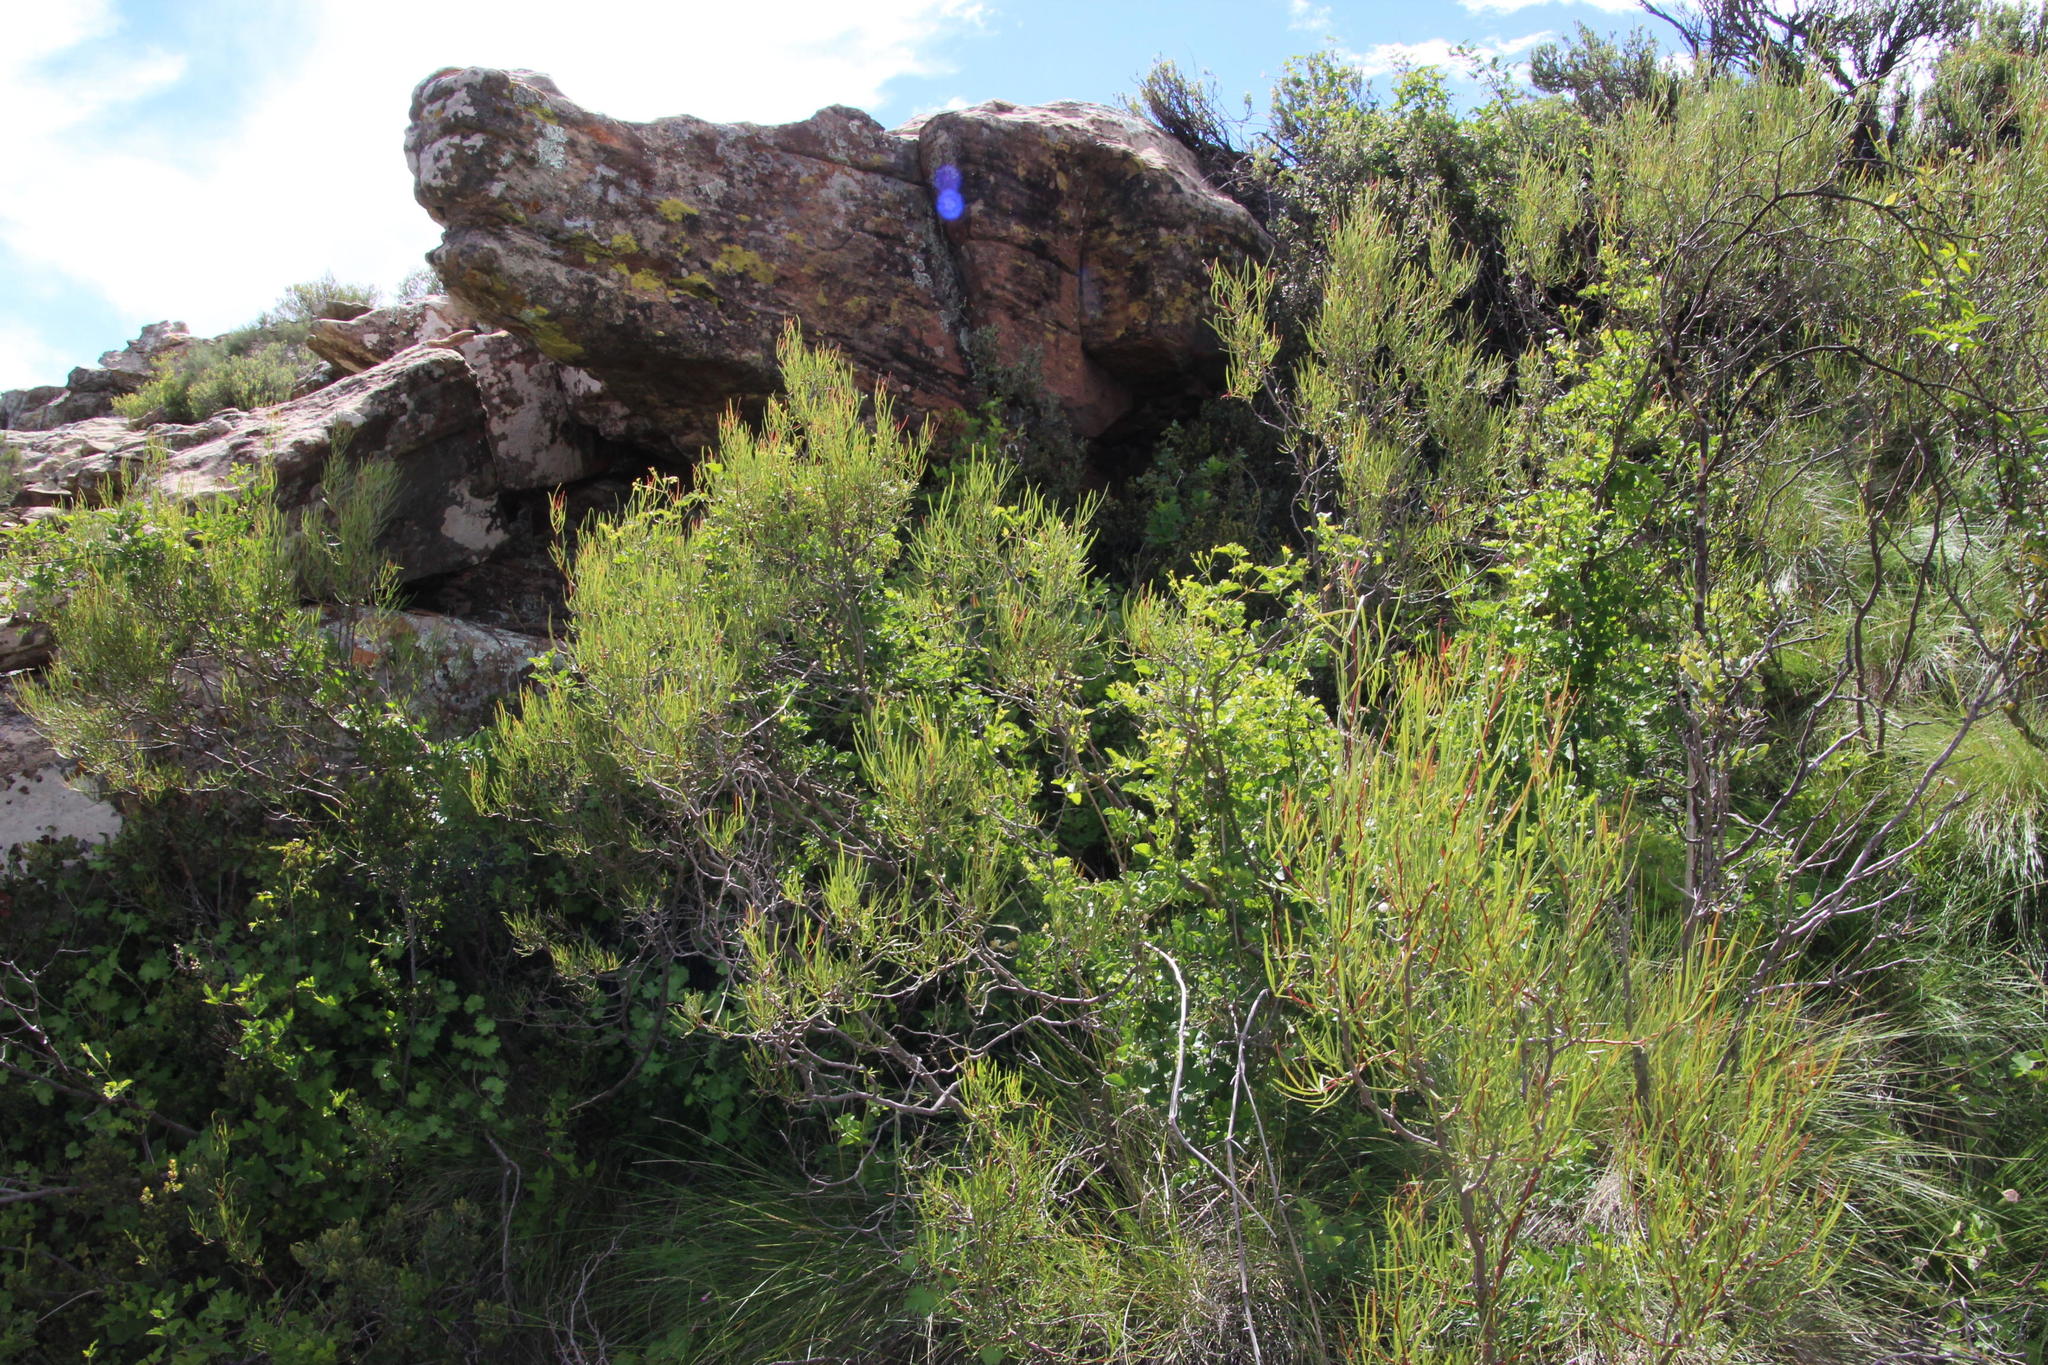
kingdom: Plantae
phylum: Tracheophyta
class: Magnoliopsida
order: Sapindales
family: Anacardiaceae
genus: Searsia
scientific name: Searsia ciliata
